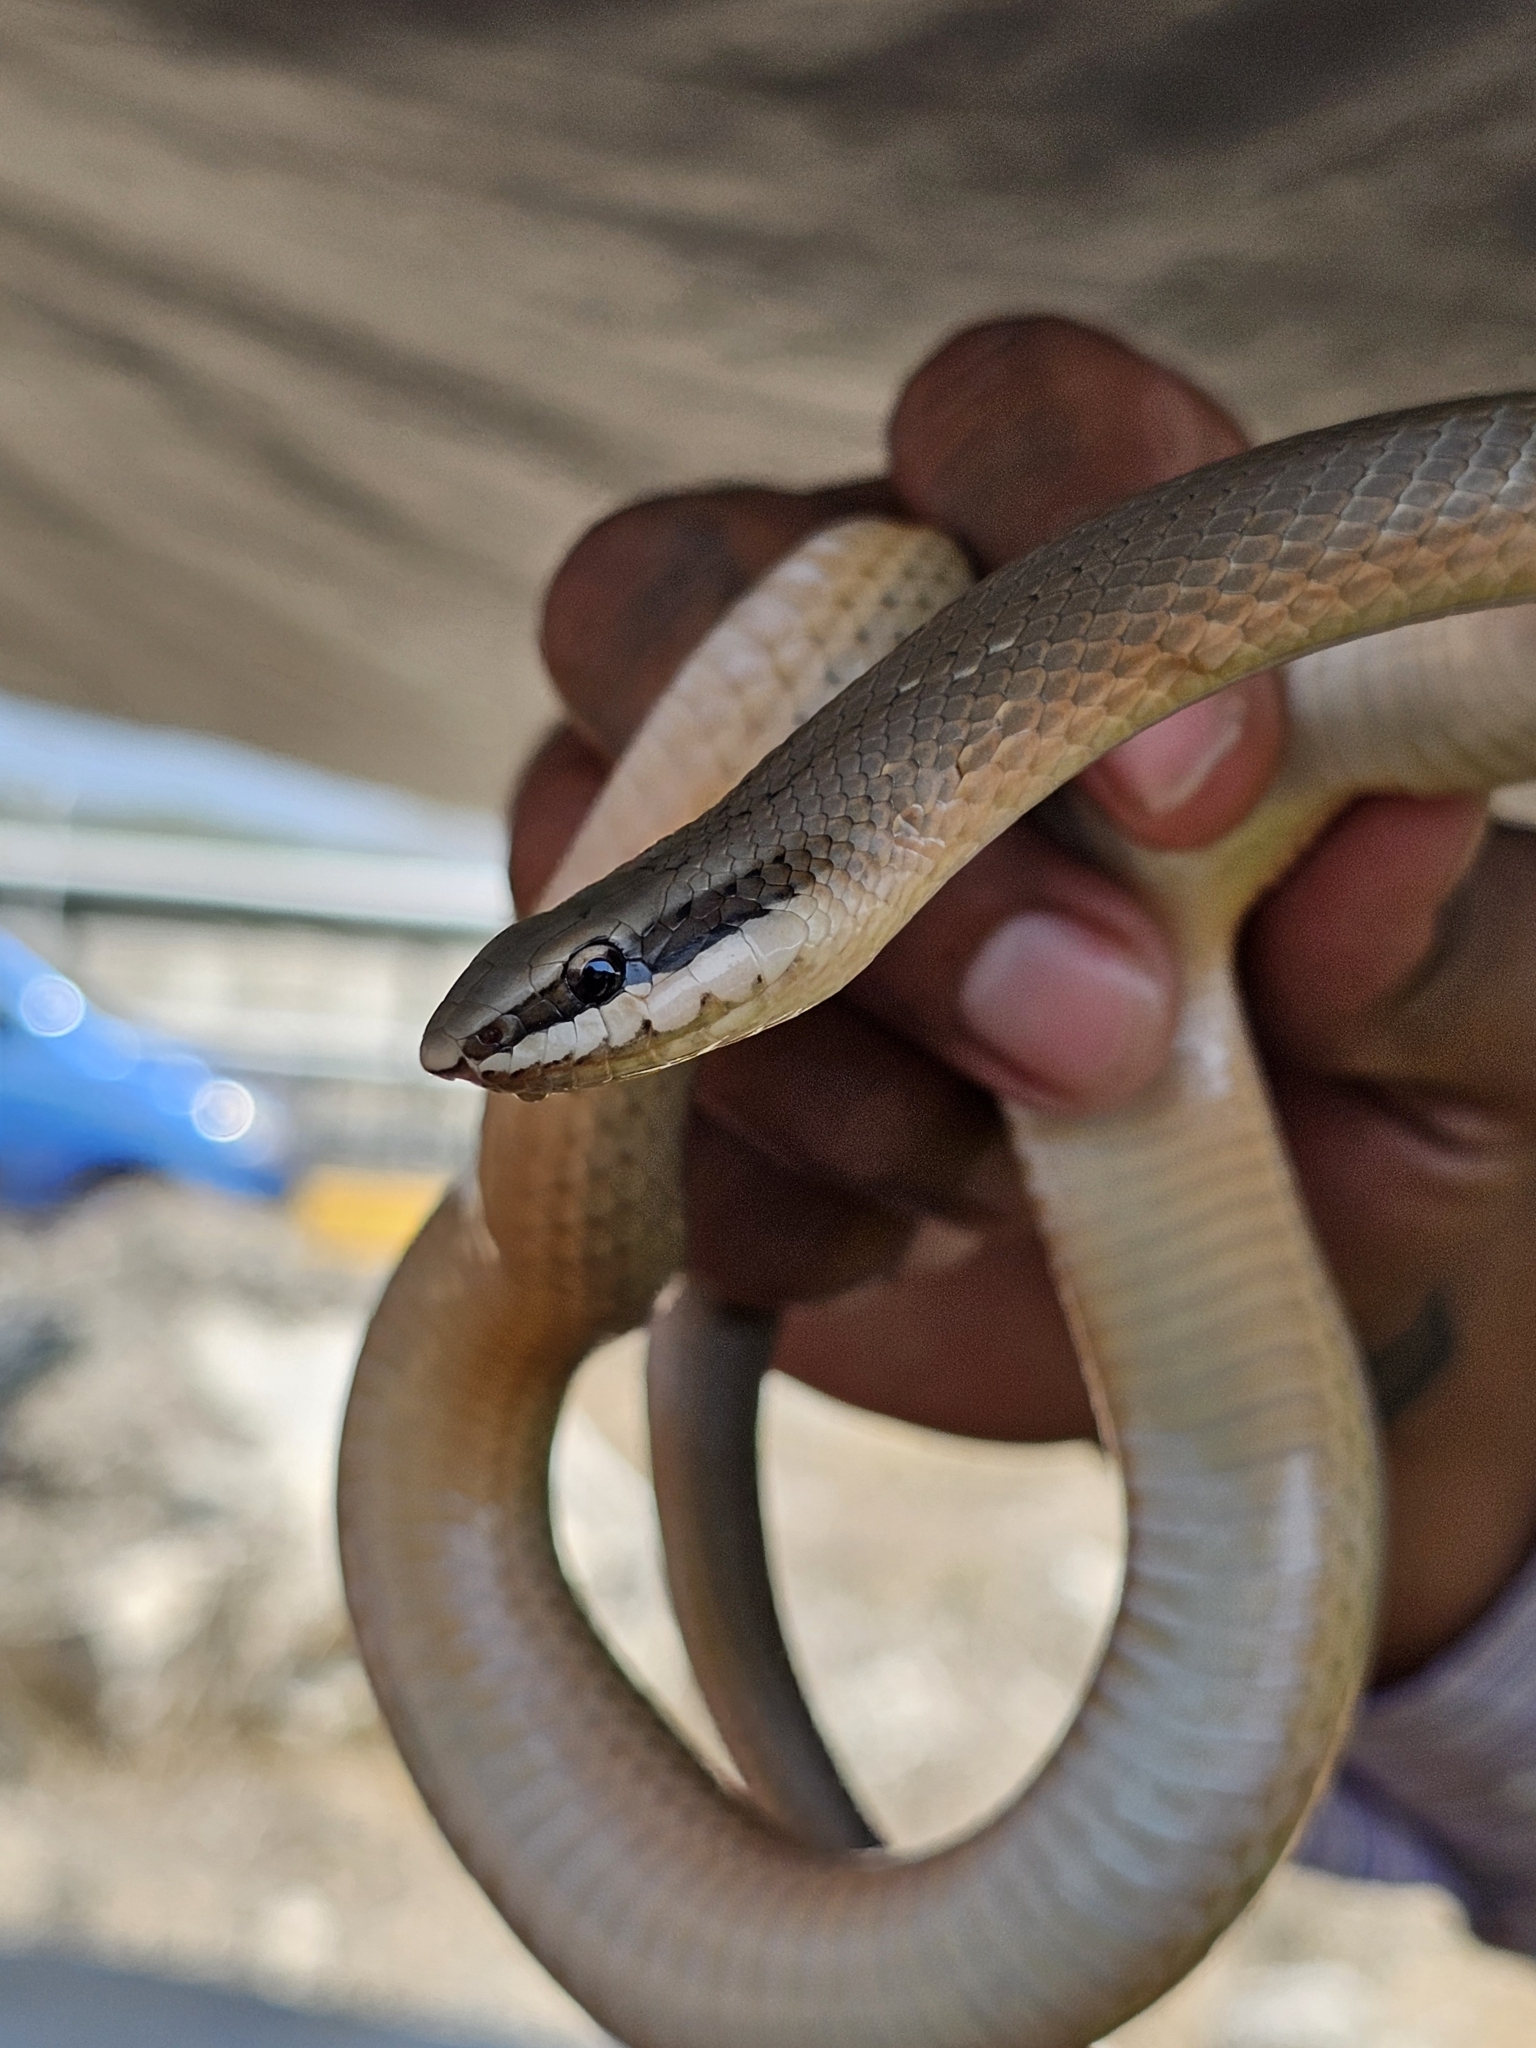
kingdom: Animalia
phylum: Chordata
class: Squamata
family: Colubridae
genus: Conophis
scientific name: Conophis lineatus
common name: Road guarder
